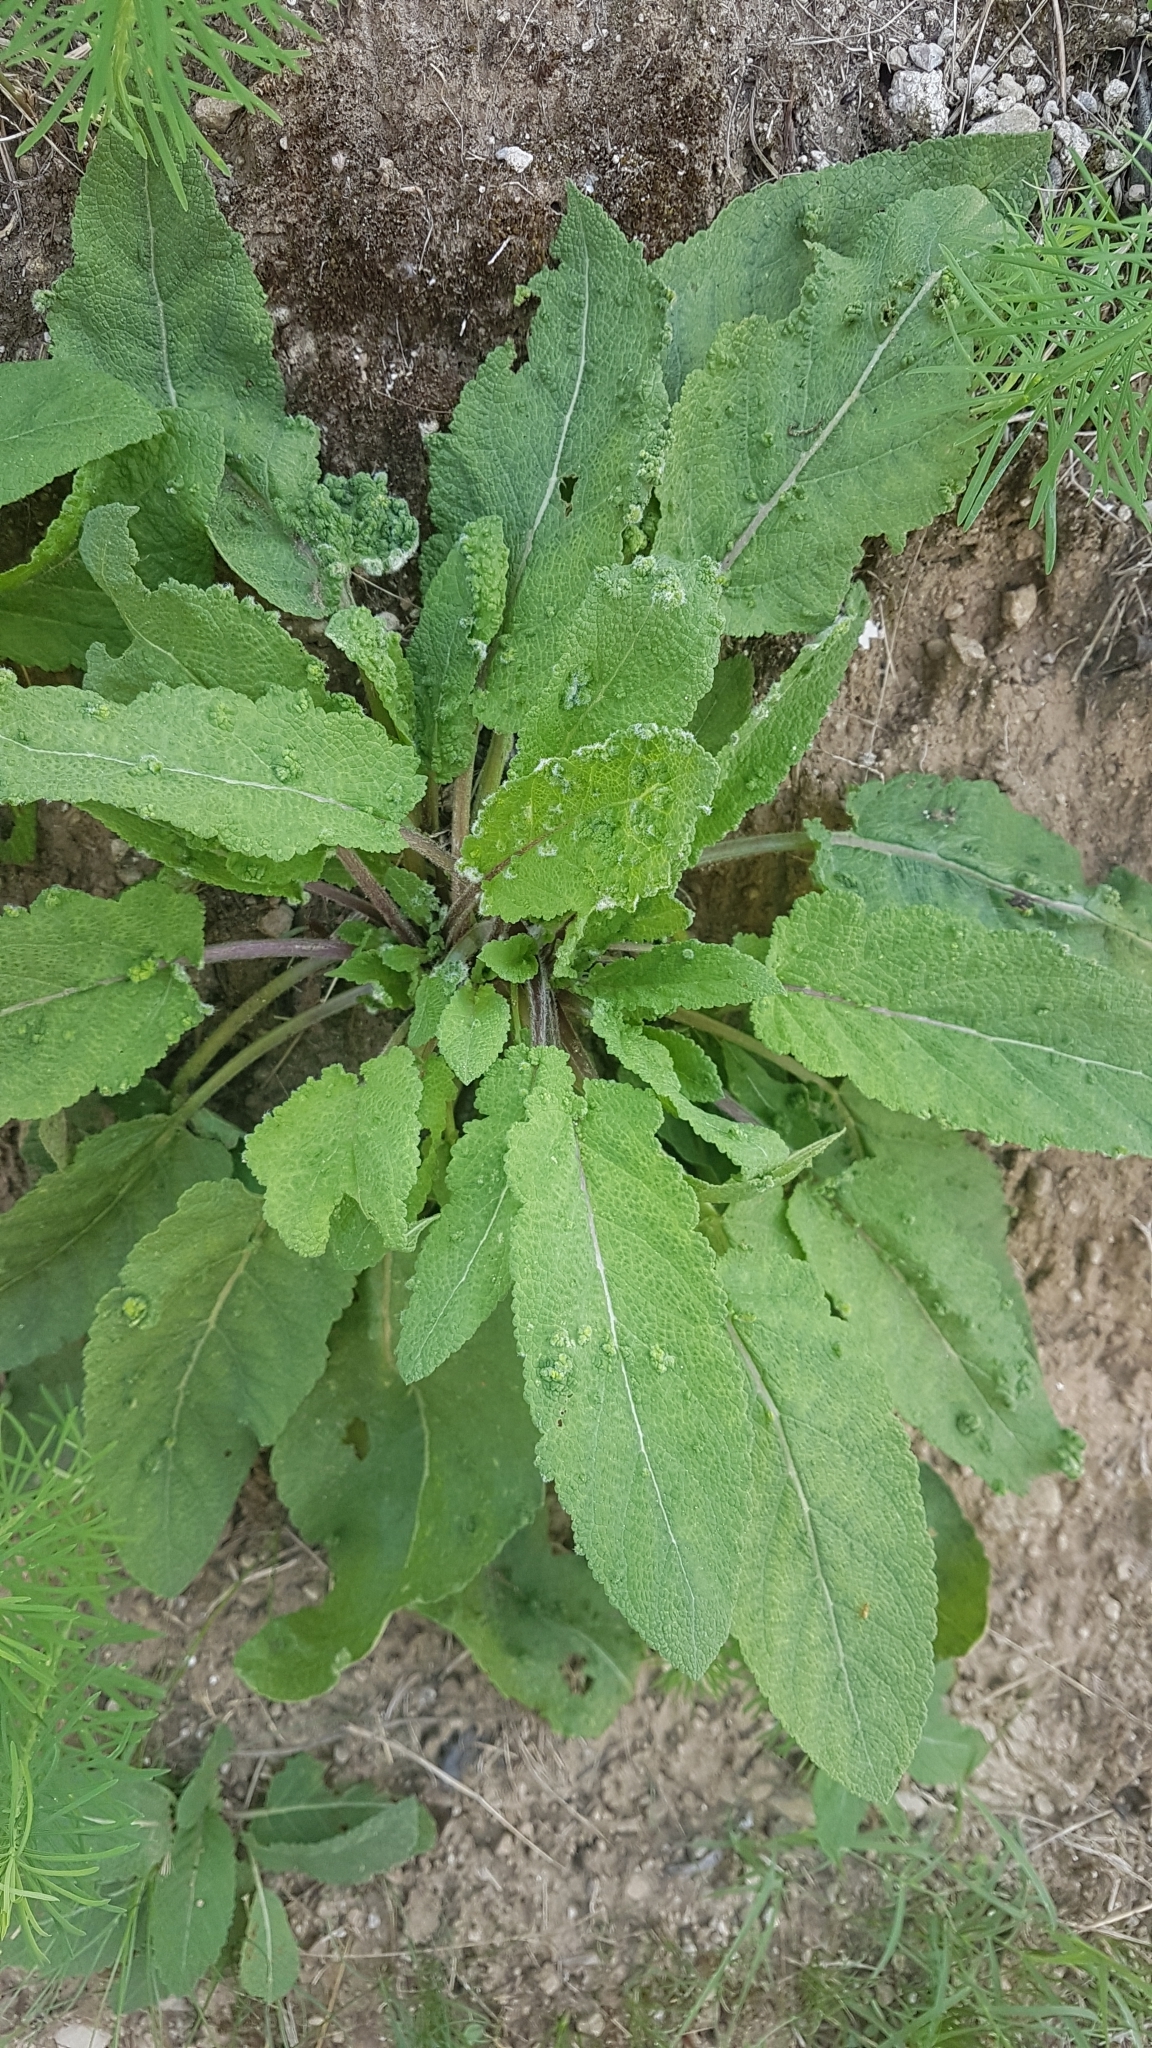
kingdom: Plantae
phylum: Tracheophyta
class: Magnoliopsida
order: Lamiales
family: Lamiaceae
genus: Salvia
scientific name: Salvia pratensis
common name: Meadow sage
